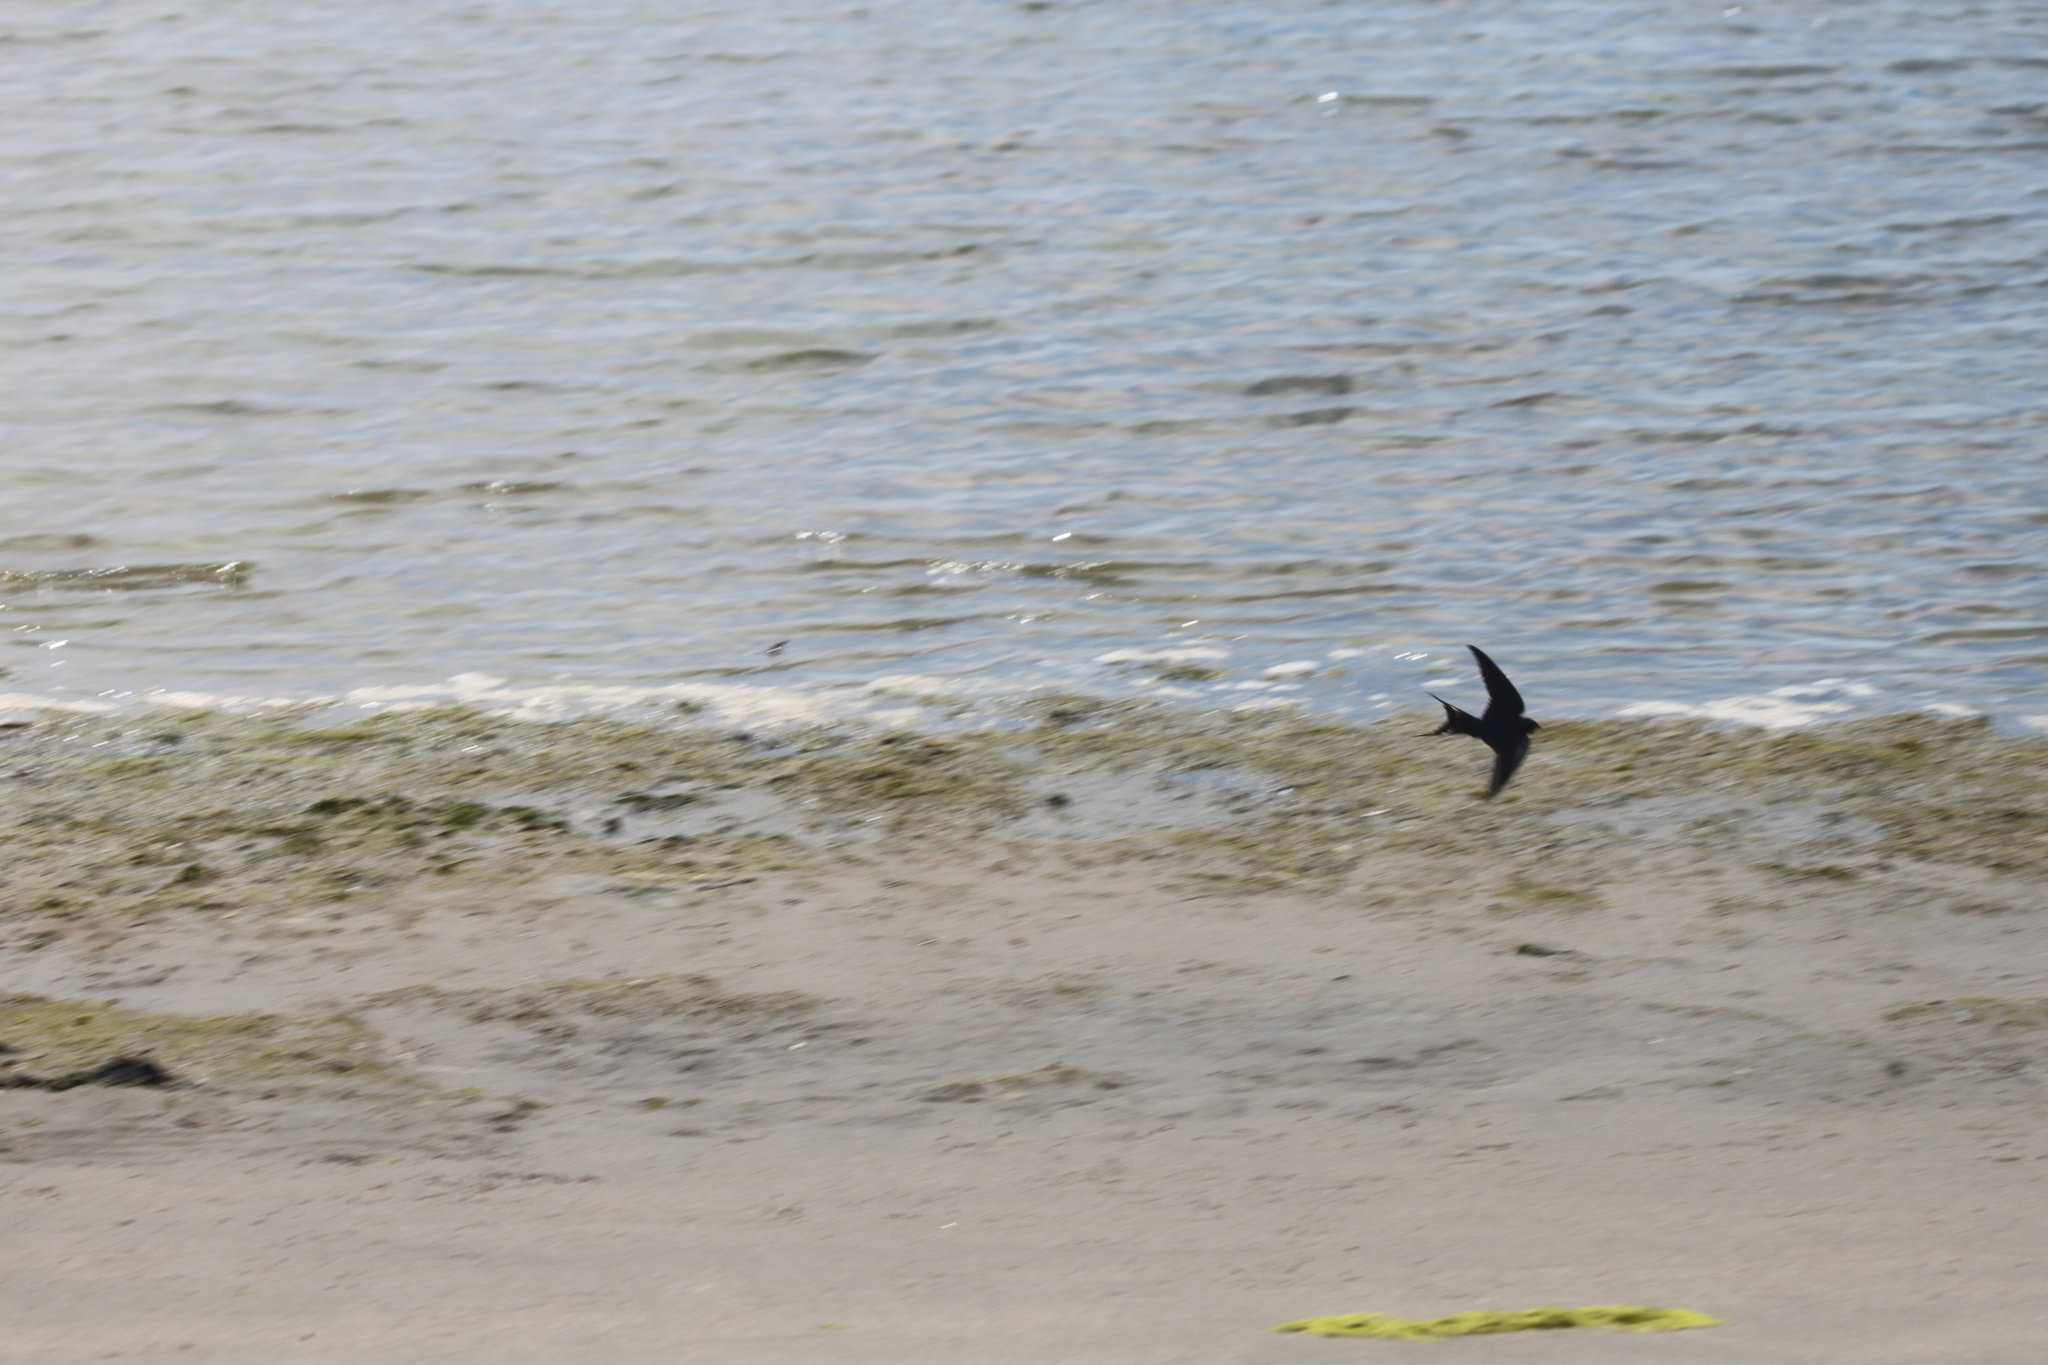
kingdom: Animalia
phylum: Chordata
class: Aves
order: Passeriformes
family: Hirundinidae
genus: Hirundo
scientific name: Hirundo rustica
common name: Barn swallow
